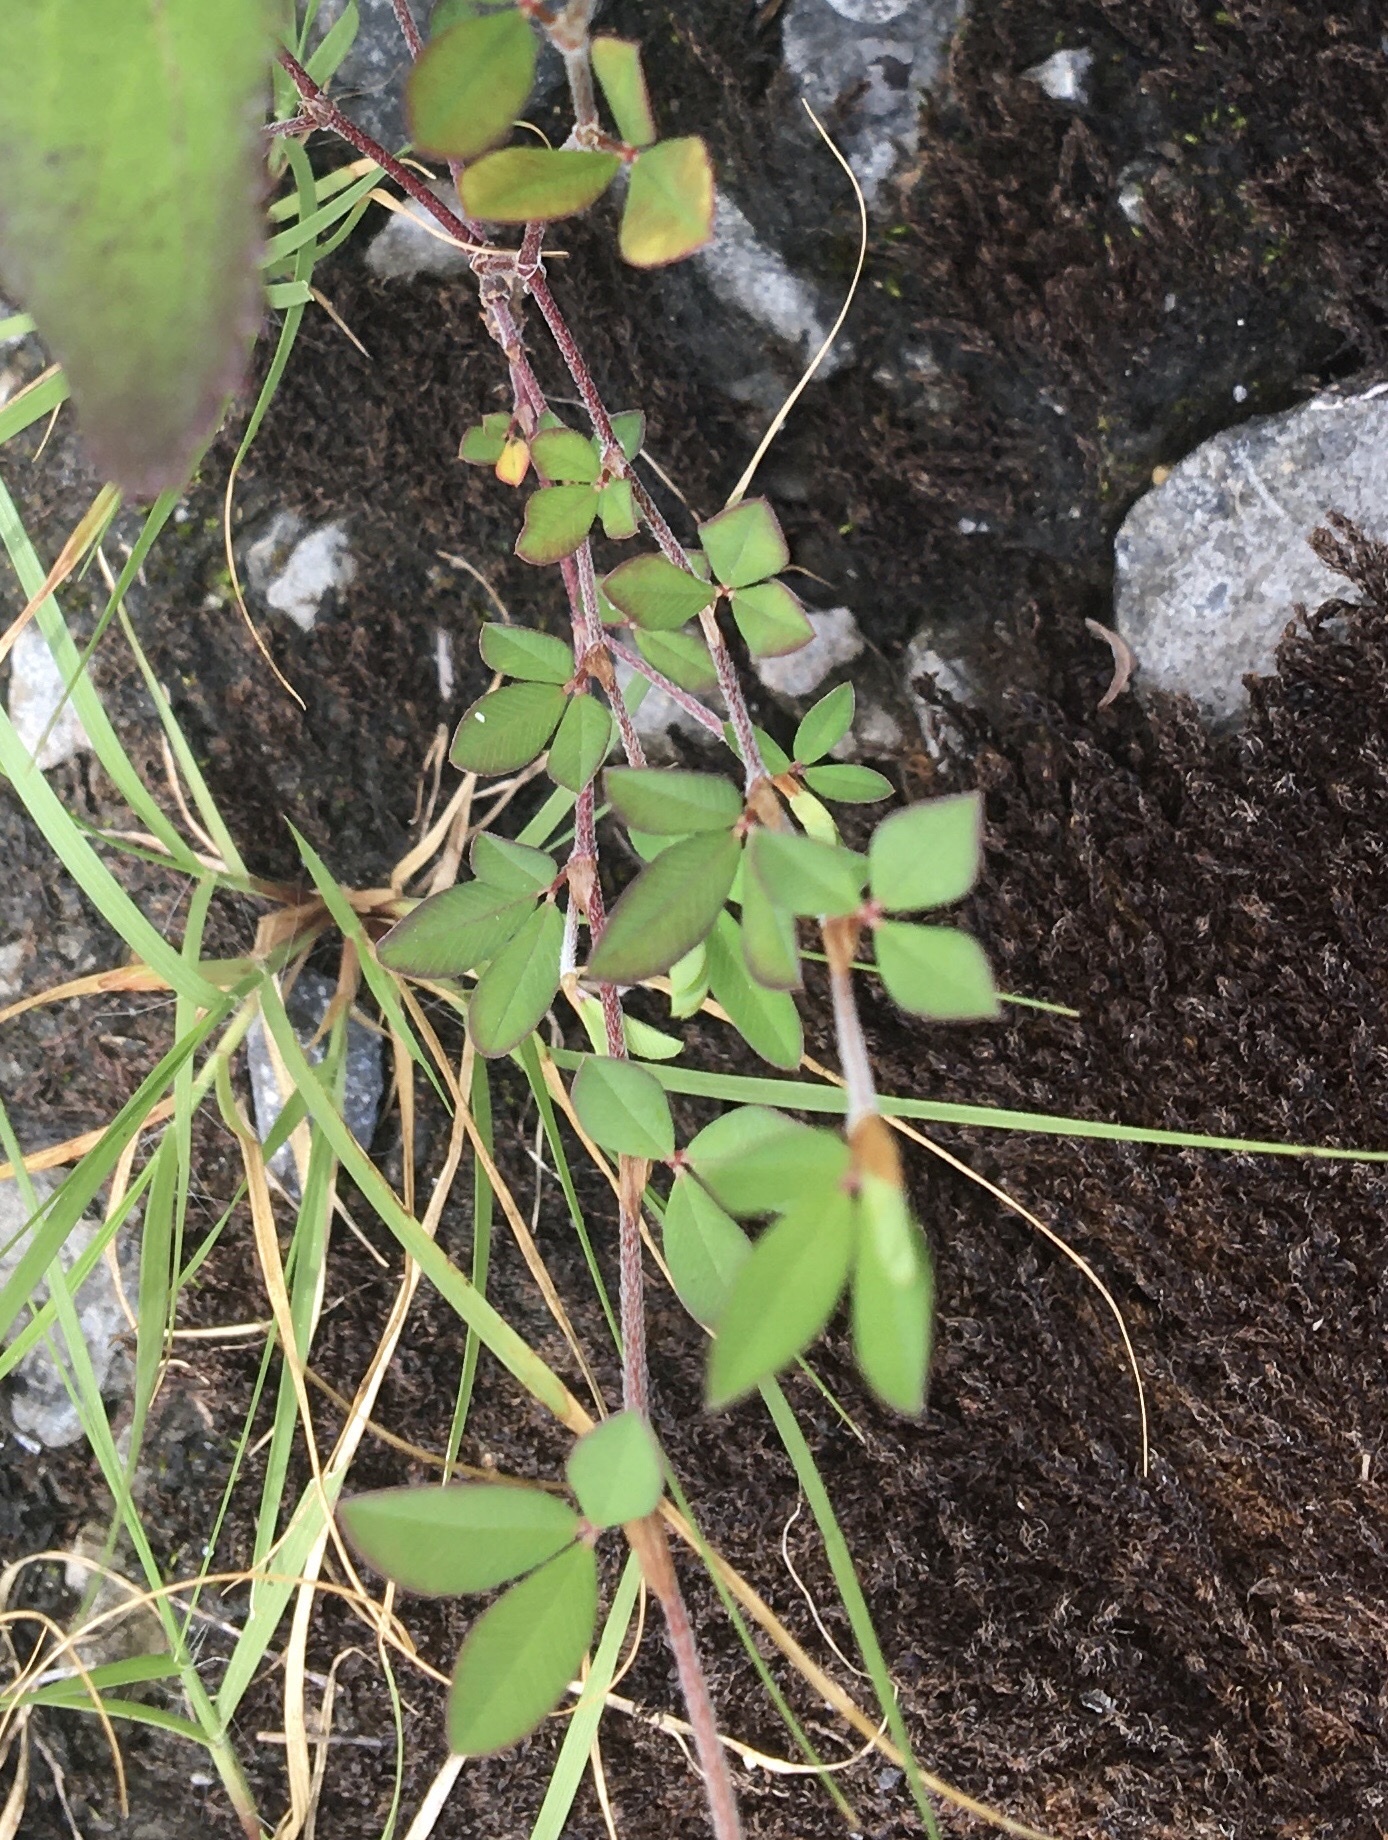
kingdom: Plantae
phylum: Tracheophyta
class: Magnoliopsida
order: Fabales
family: Fabaceae
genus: Kummerowia
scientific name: Kummerowia striata
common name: Japanese clover
